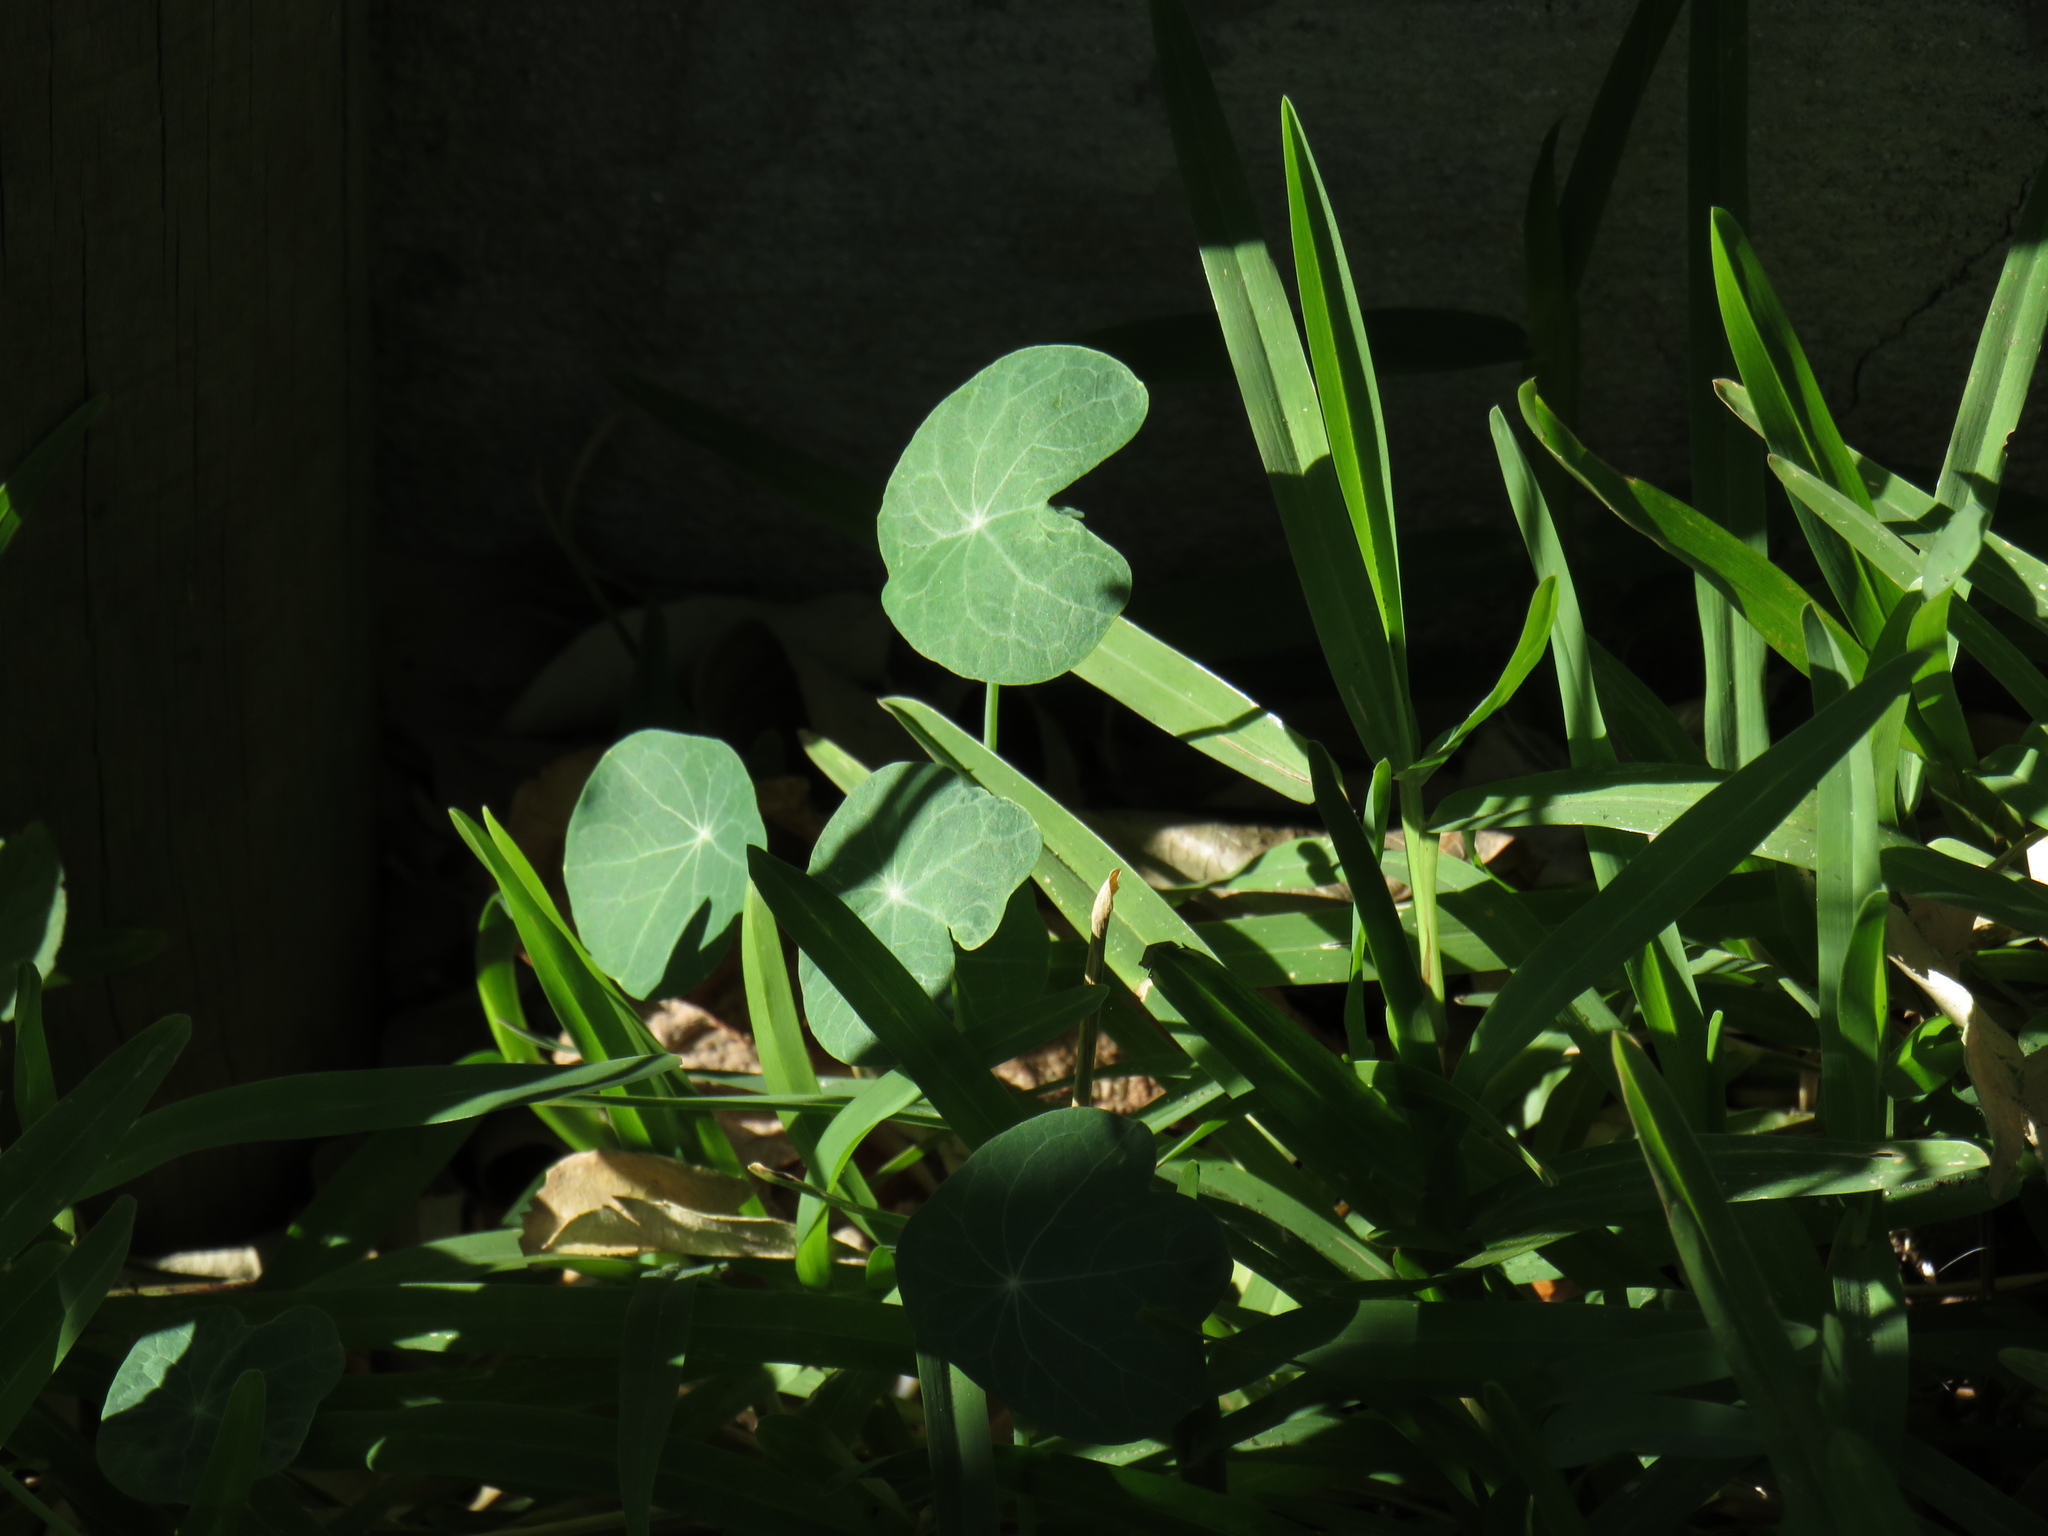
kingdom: Plantae
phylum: Tracheophyta
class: Magnoliopsida
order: Brassicales
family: Tropaeolaceae
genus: Tropaeolum
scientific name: Tropaeolum majus
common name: Nasturtium
